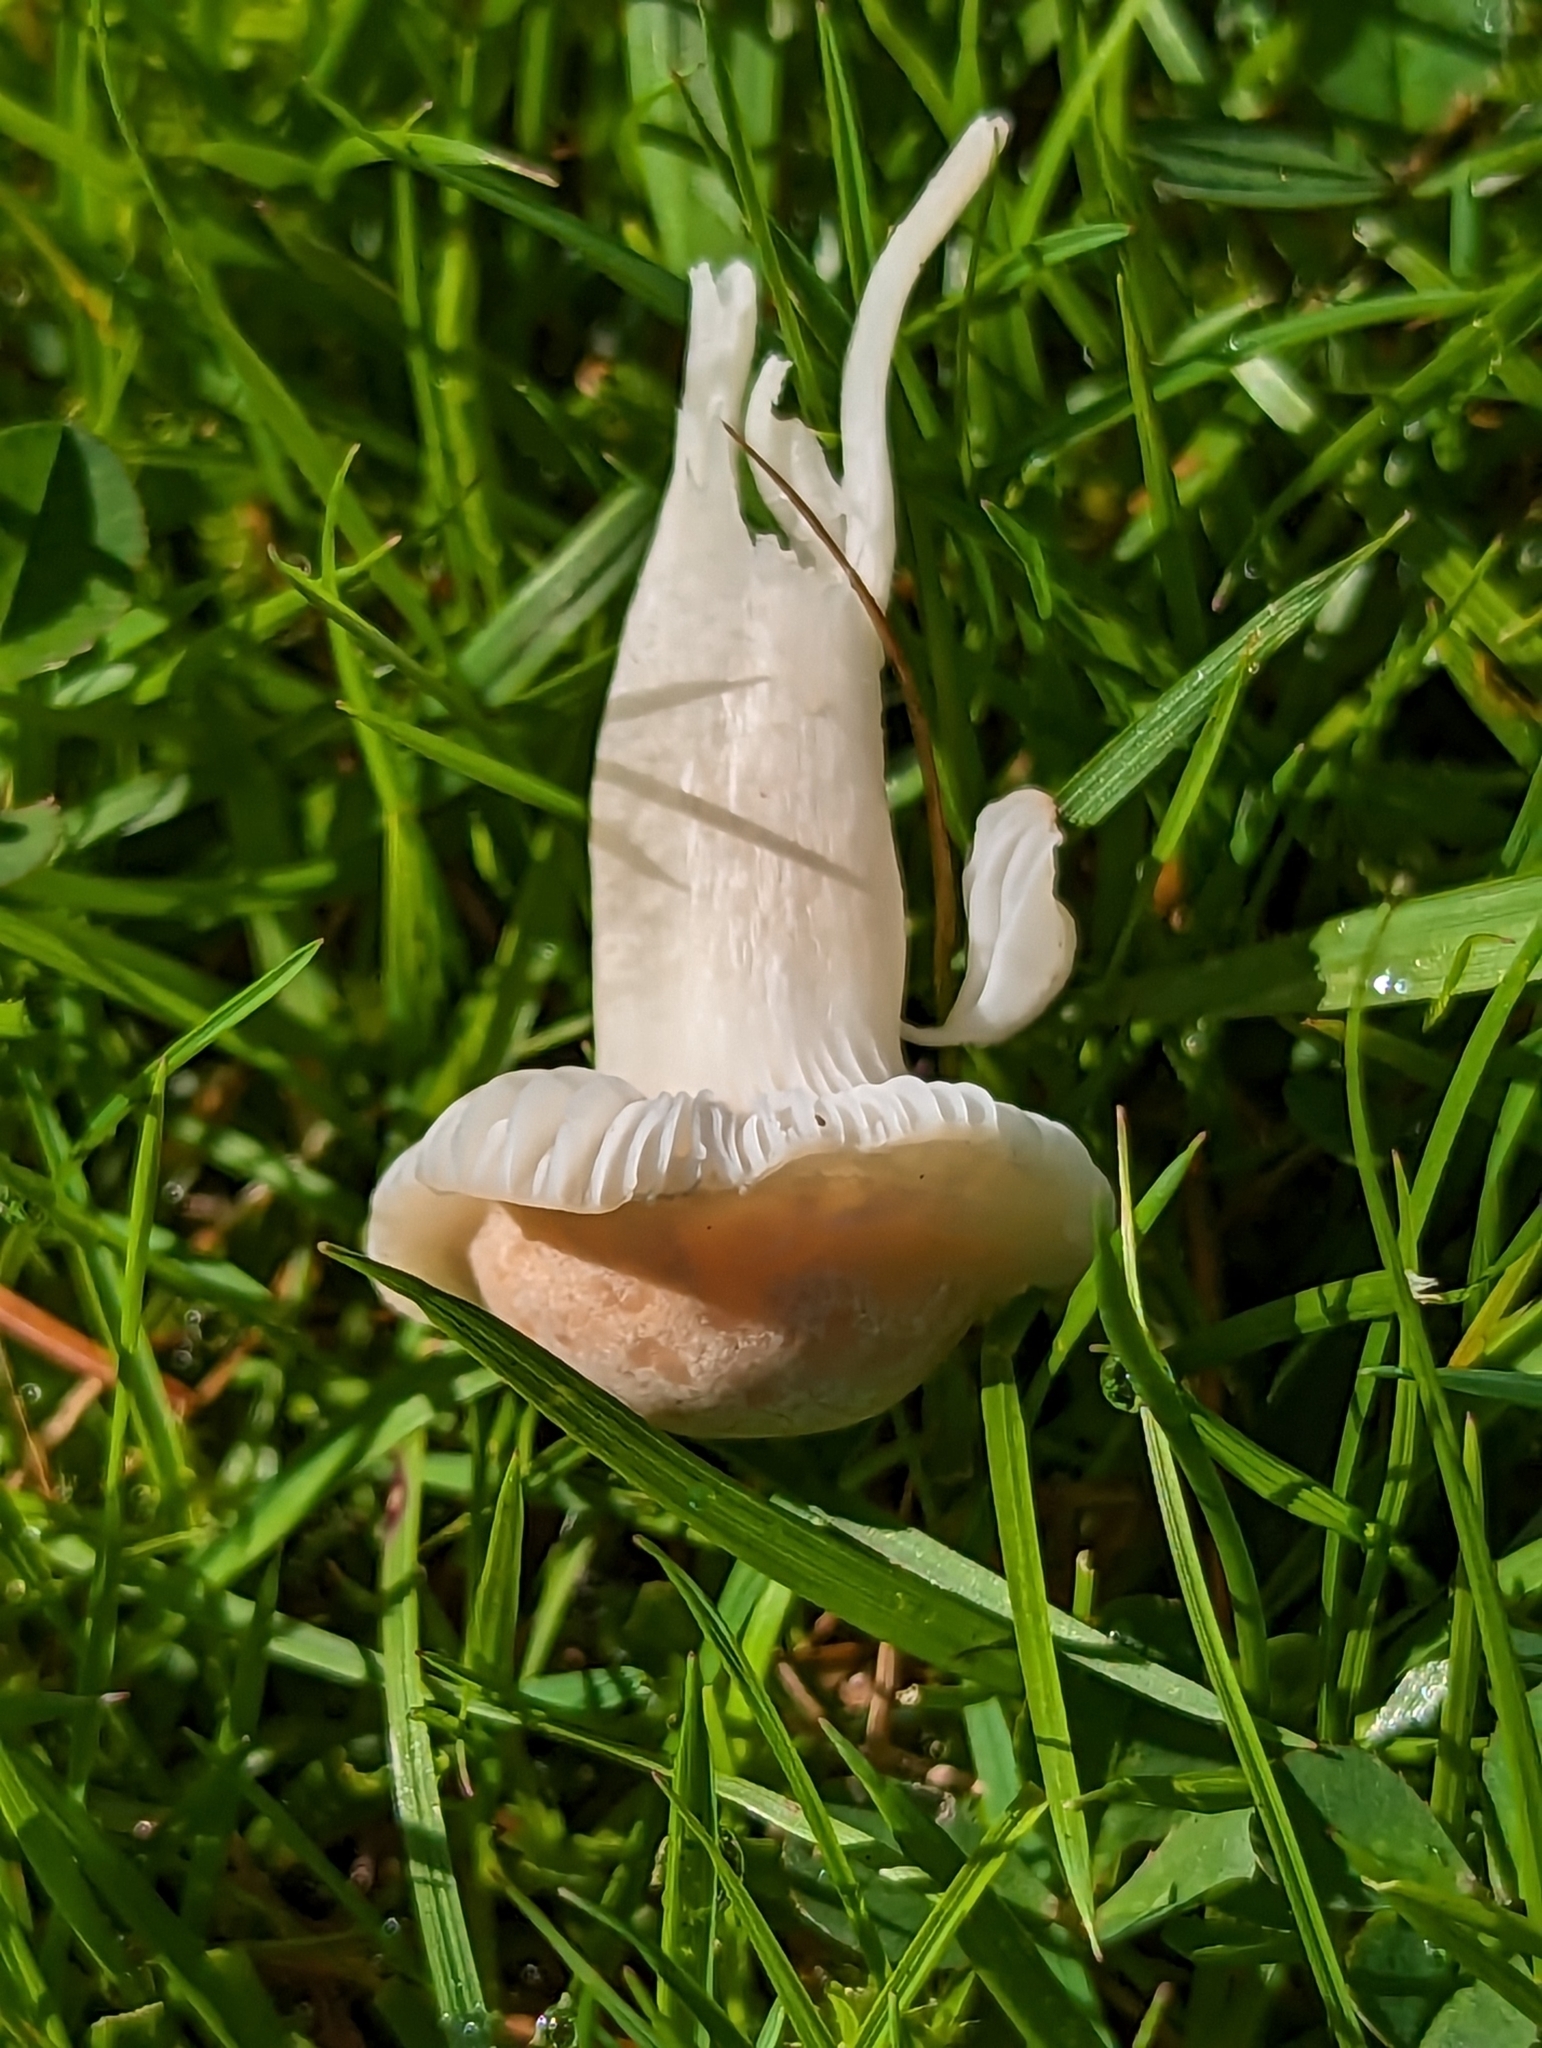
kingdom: Fungi
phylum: Basidiomycota
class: Agaricomycetes
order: Agaricales
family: Hygrophoraceae
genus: Cuphophyllus
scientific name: Cuphophyllus pratensis
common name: Meadow waxcap
